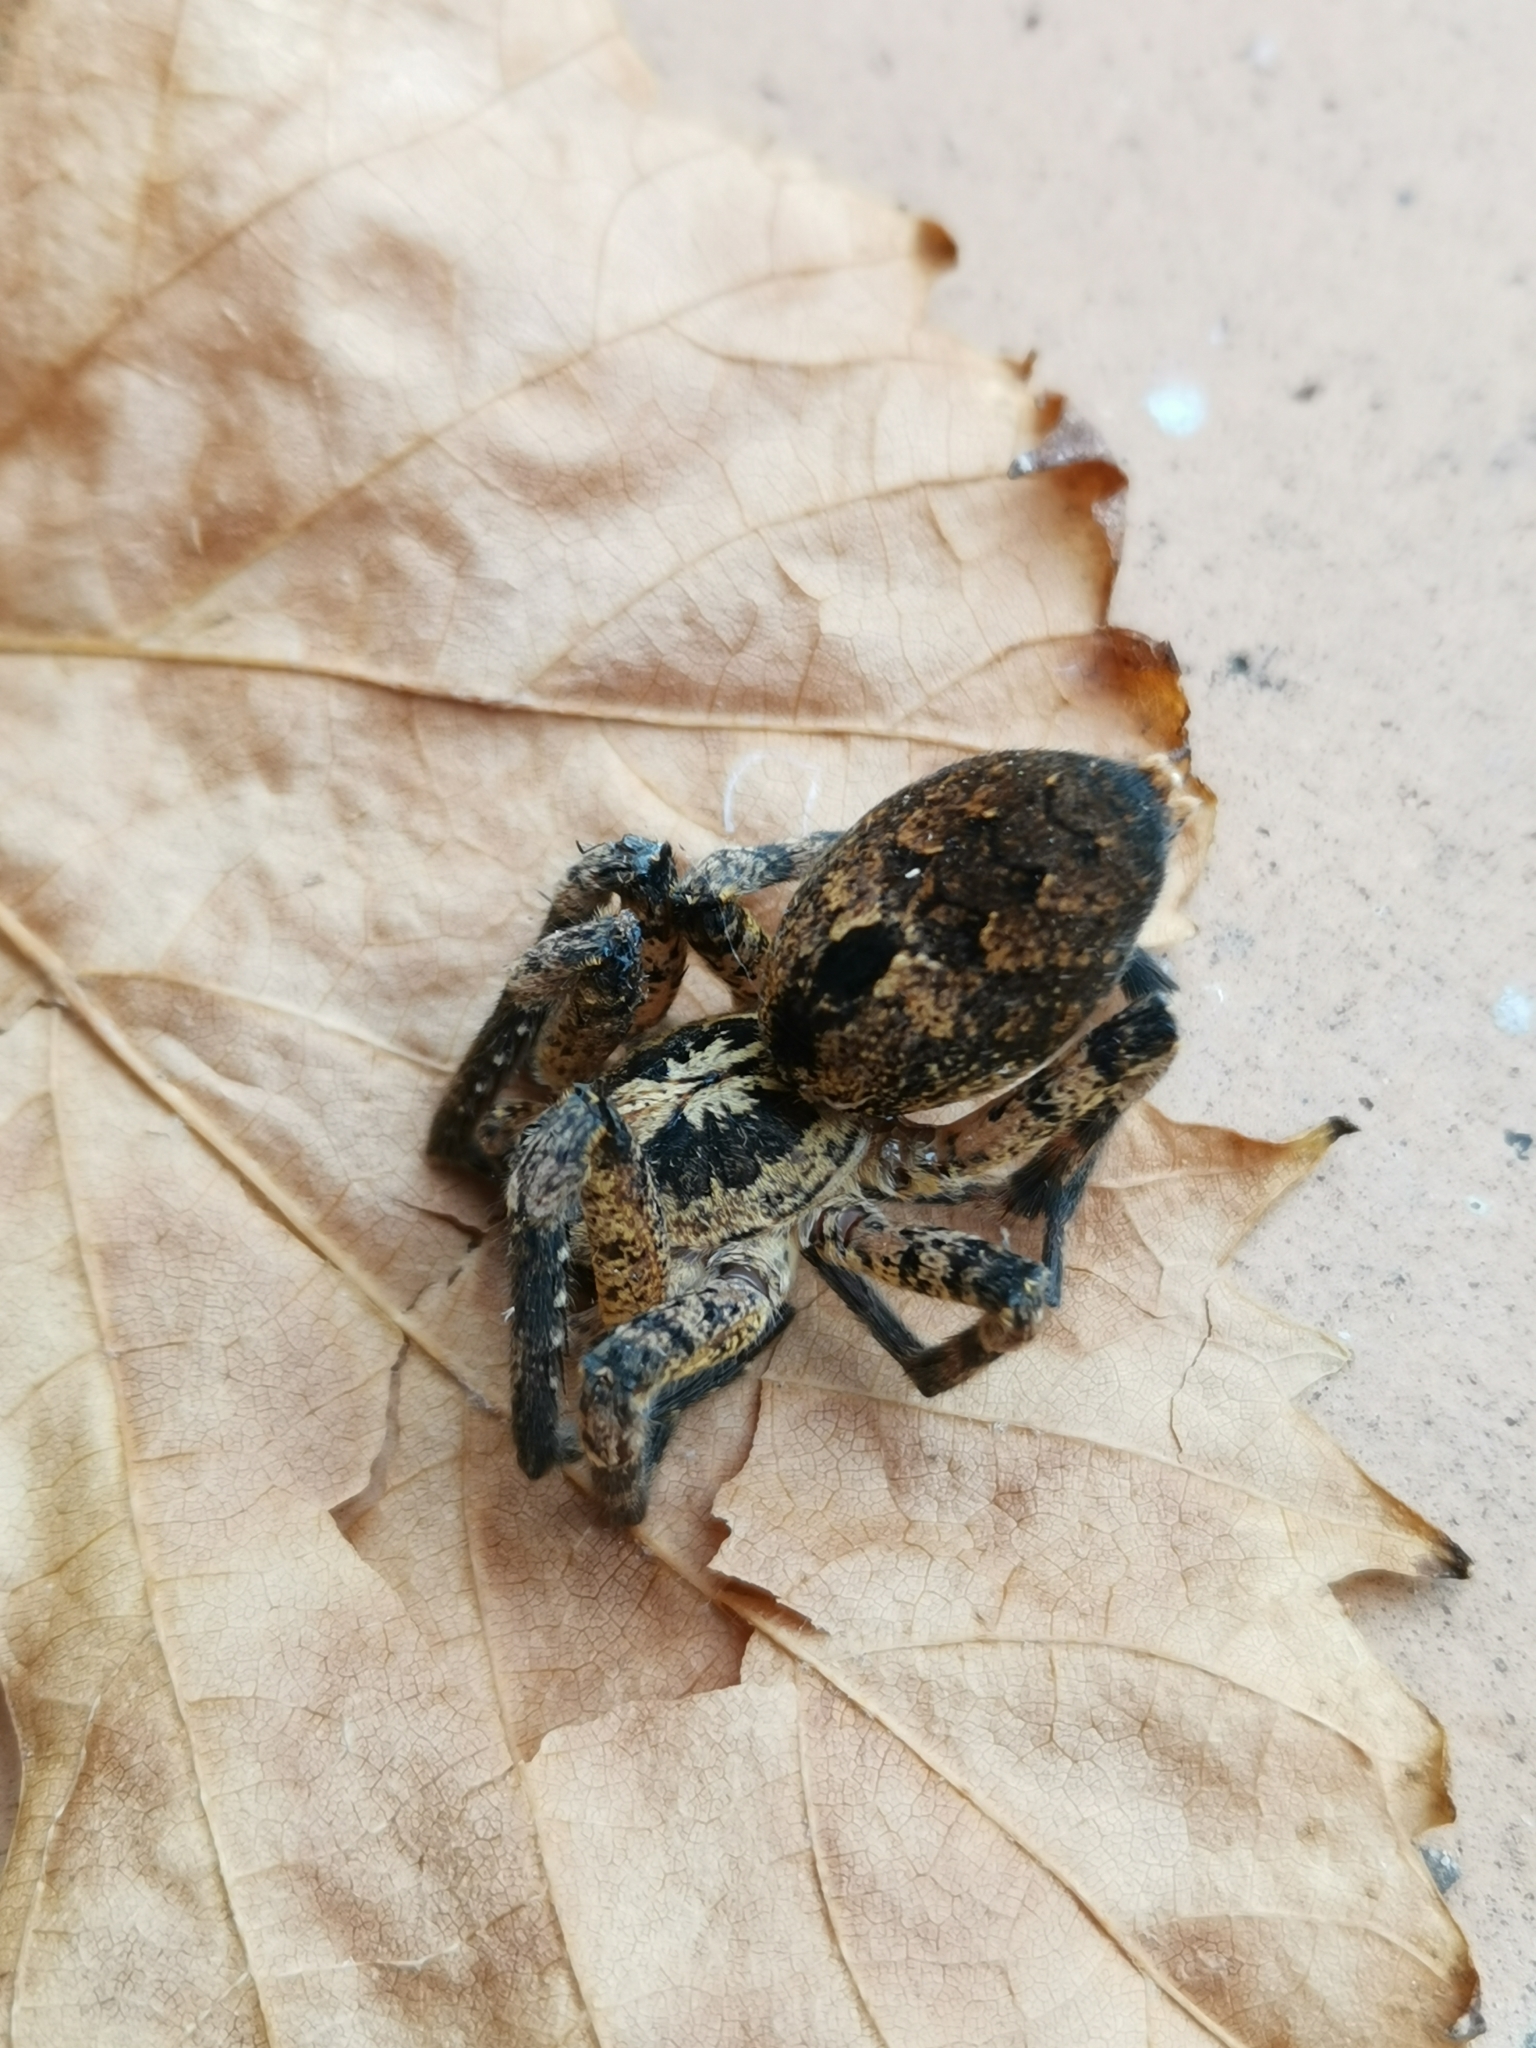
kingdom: Animalia
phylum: Arthropoda
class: Arachnida
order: Araneae
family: Zoropsidae
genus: Zoropsis
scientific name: Zoropsis spinimana
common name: Zoropsid spider
